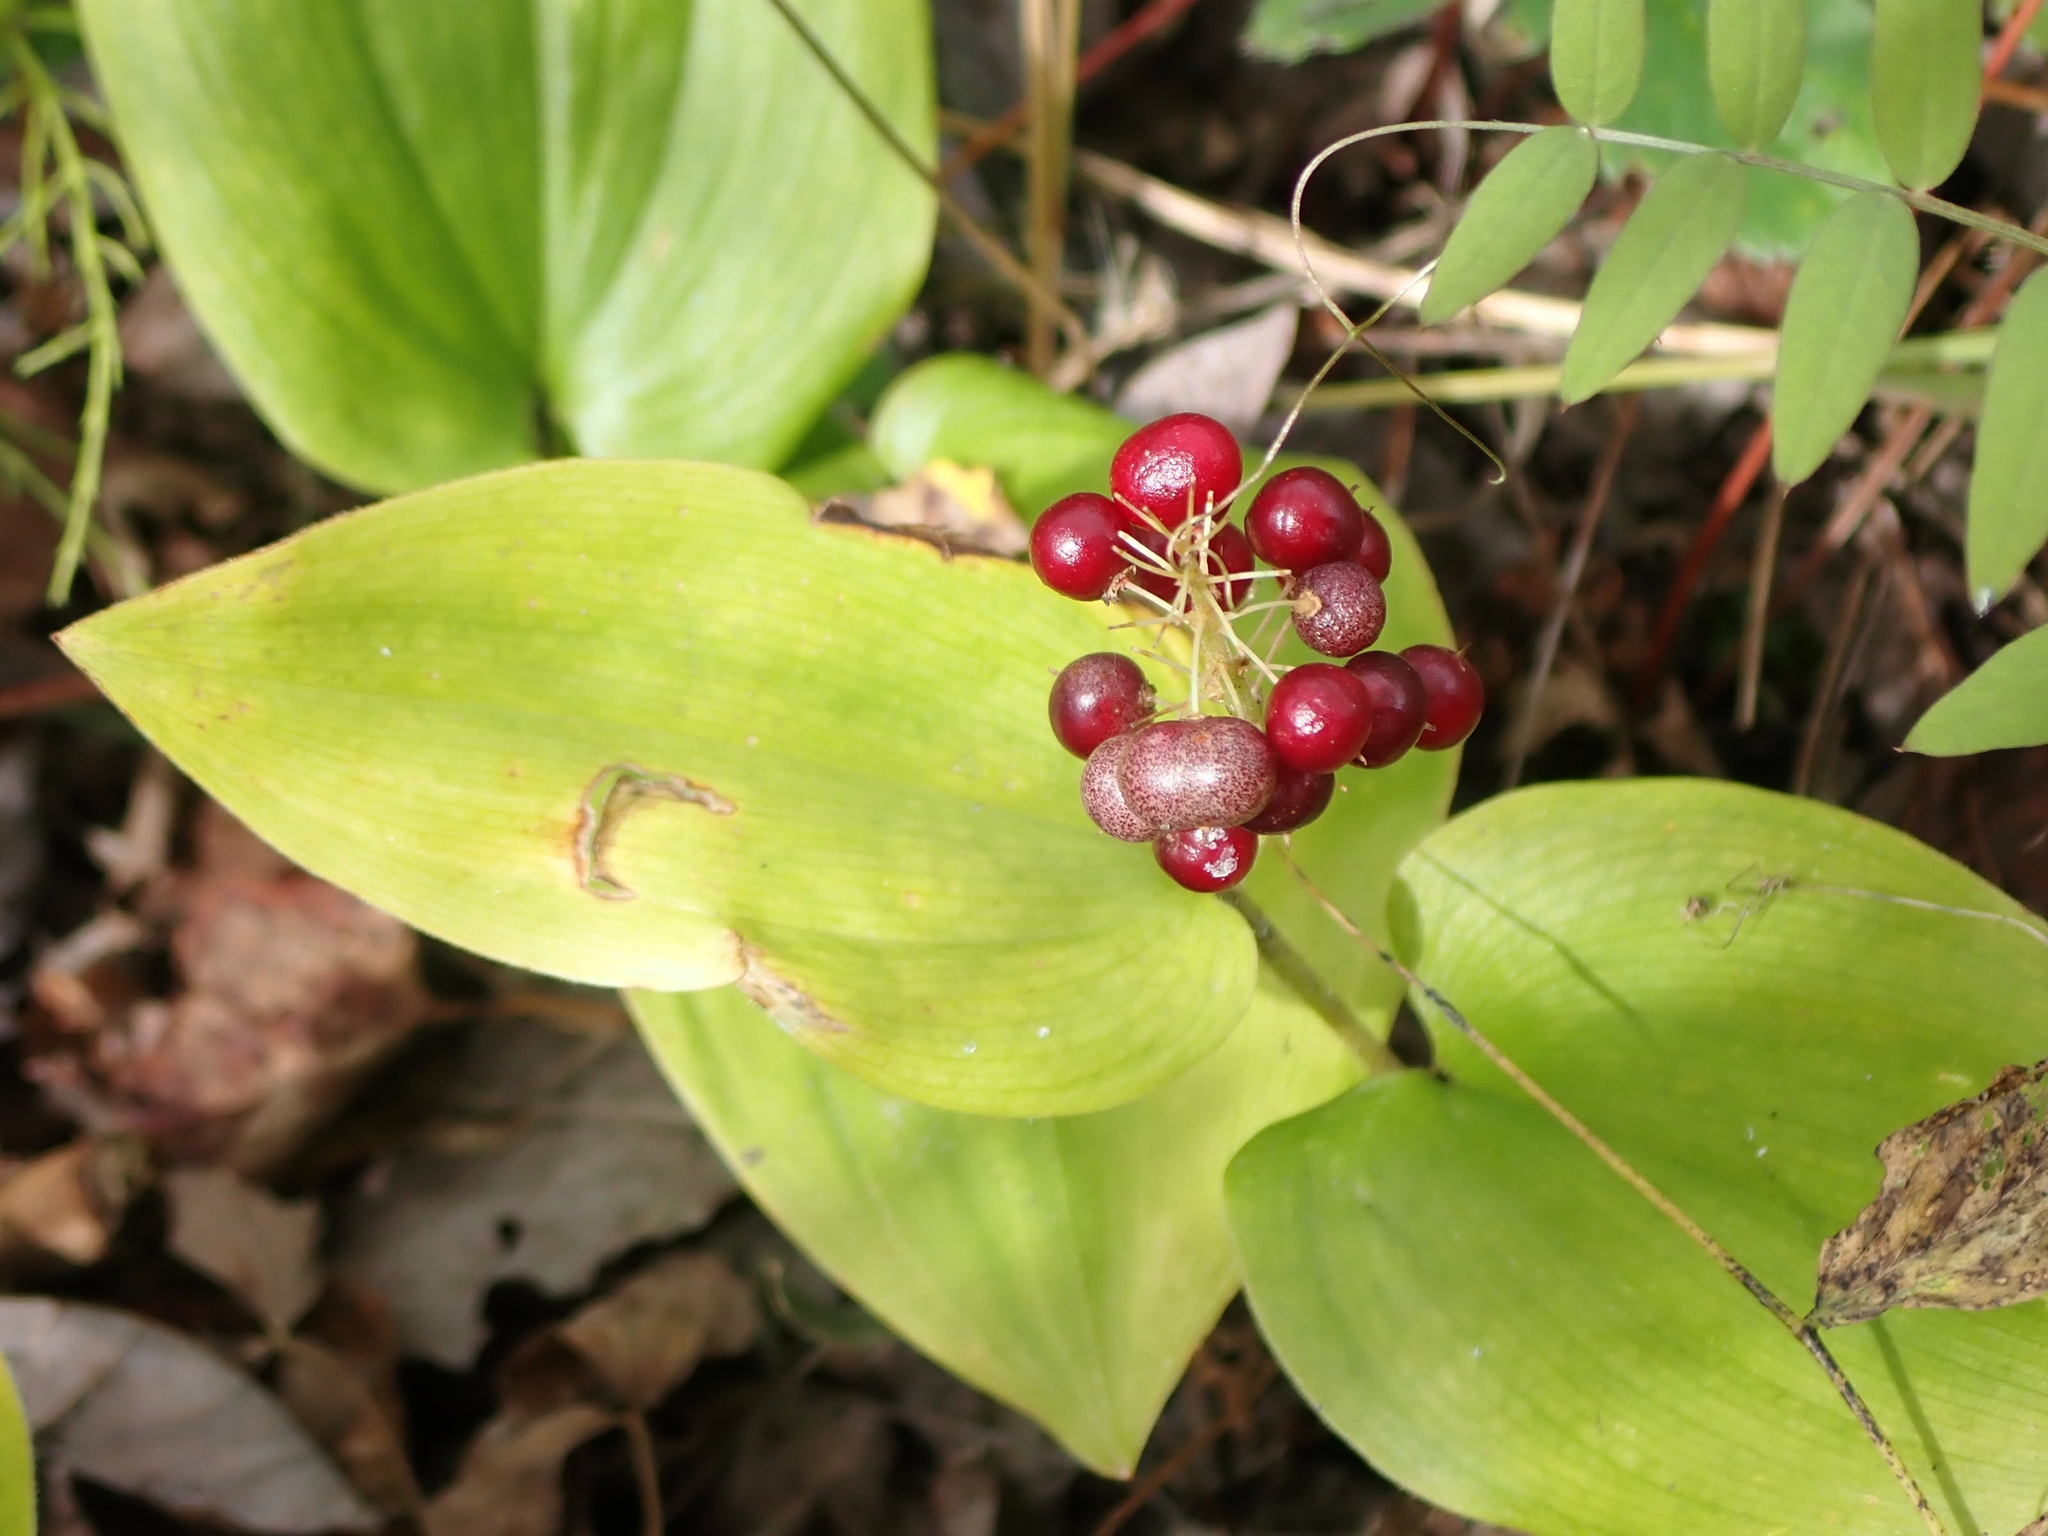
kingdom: Plantae
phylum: Tracheophyta
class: Liliopsida
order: Asparagales
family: Asparagaceae
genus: Maianthemum
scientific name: Maianthemum canadense
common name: False lily-of-the-valley
